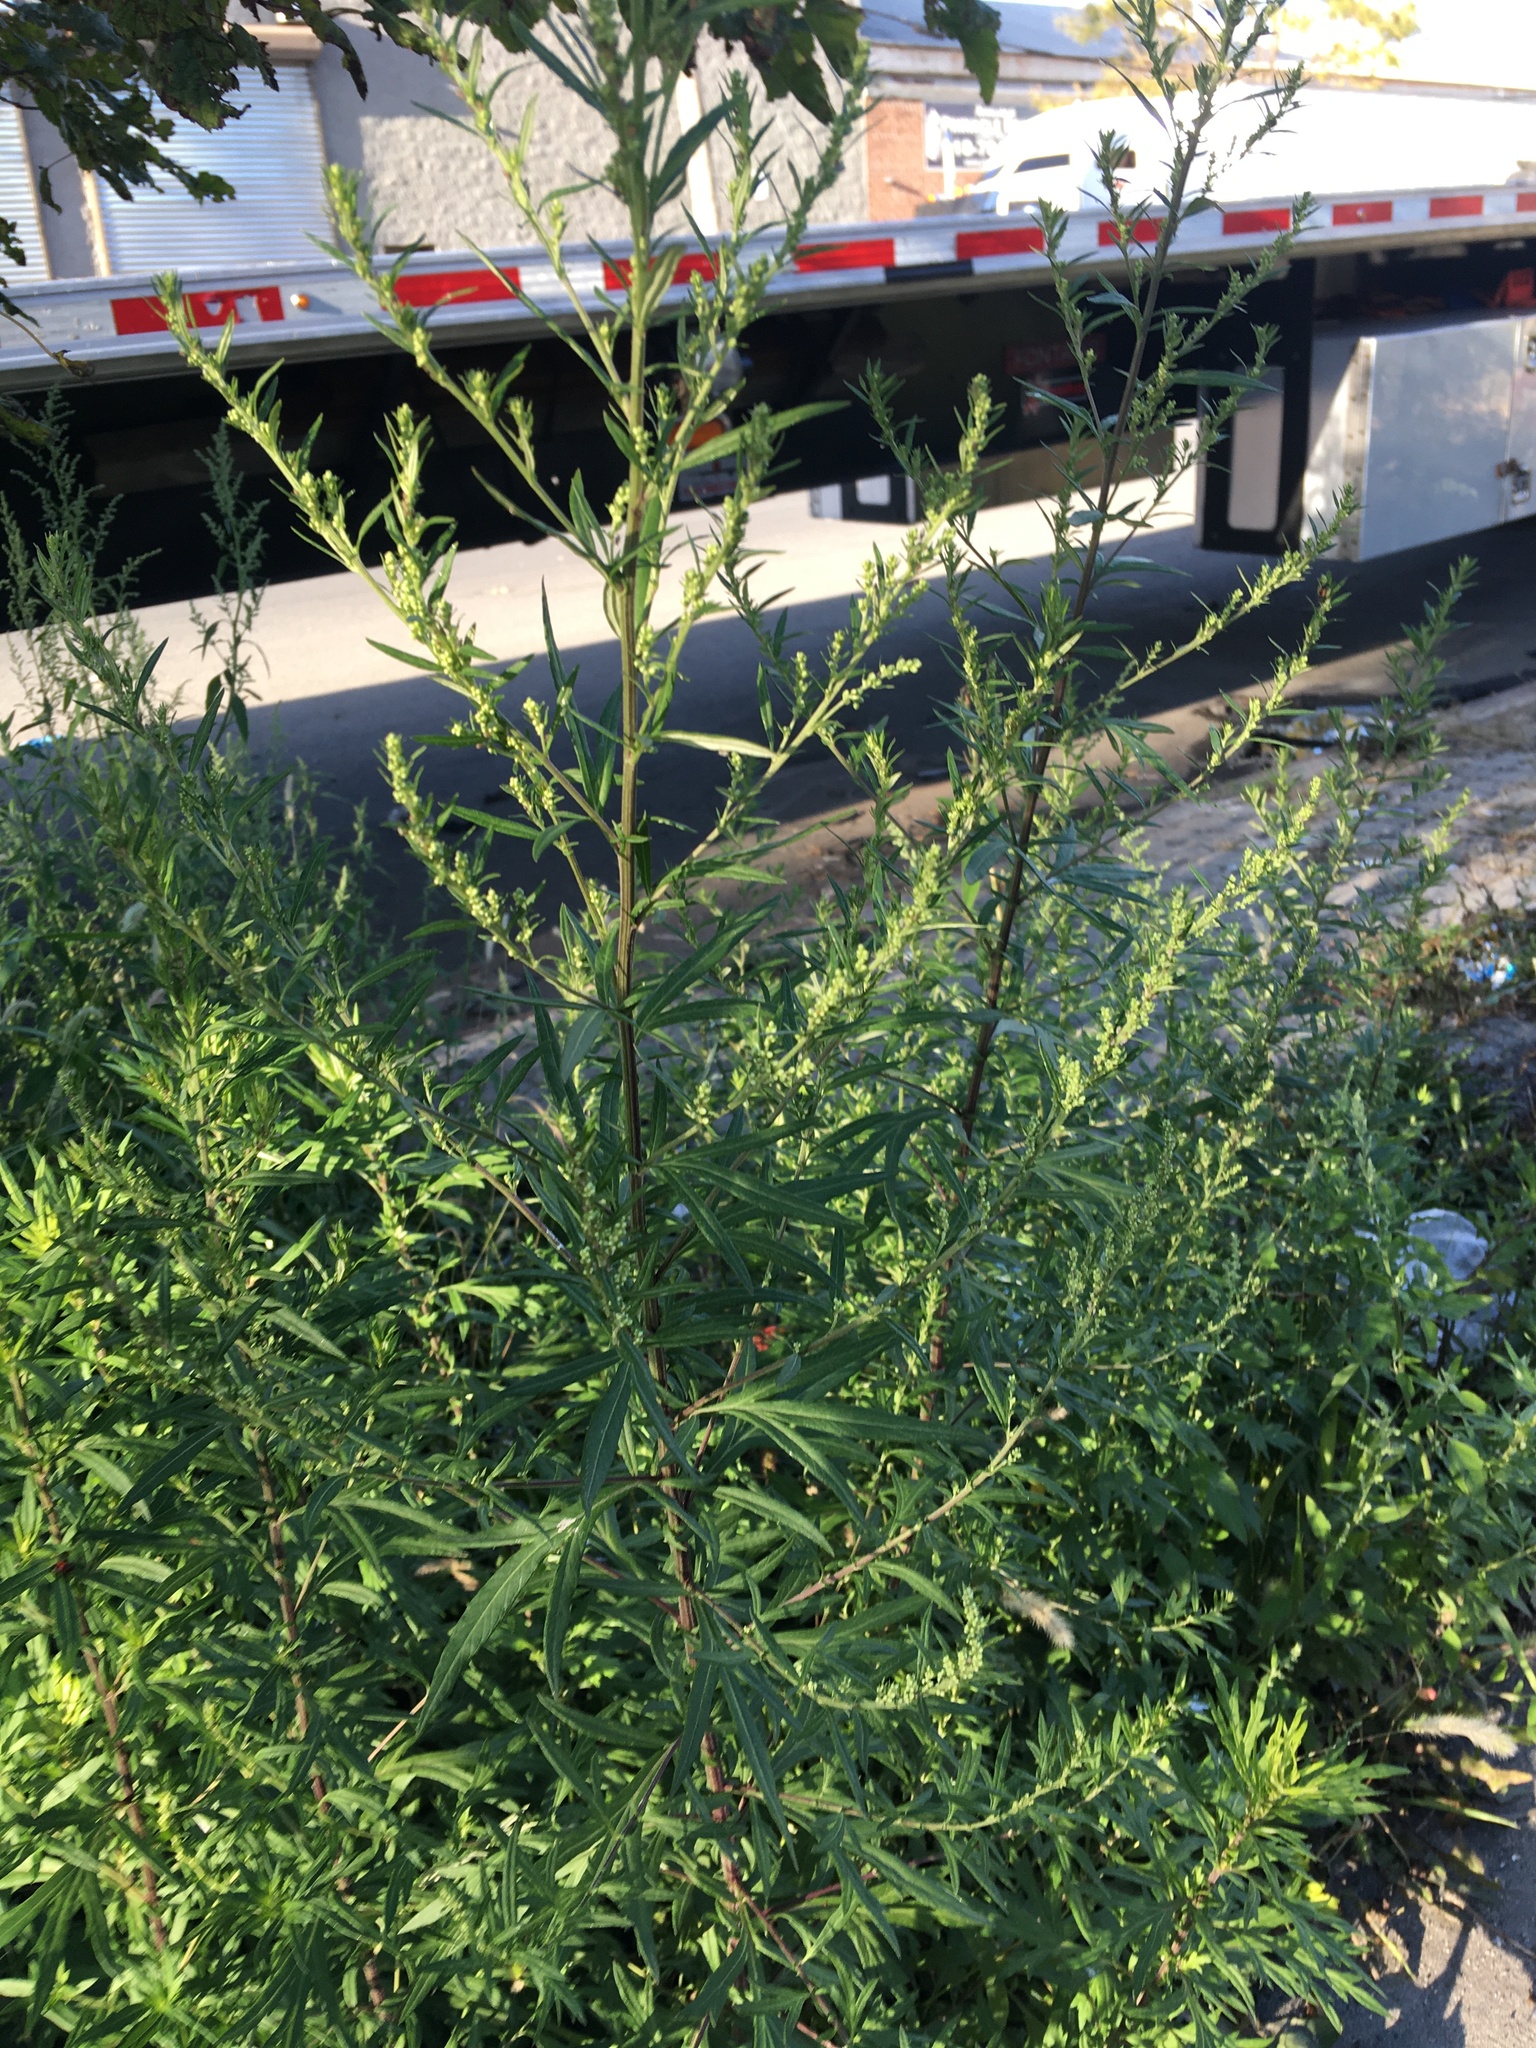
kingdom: Plantae
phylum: Tracheophyta
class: Magnoliopsida
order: Asterales
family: Asteraceae
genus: Artemisia
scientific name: Artemisia vulgaris
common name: Mugwort
